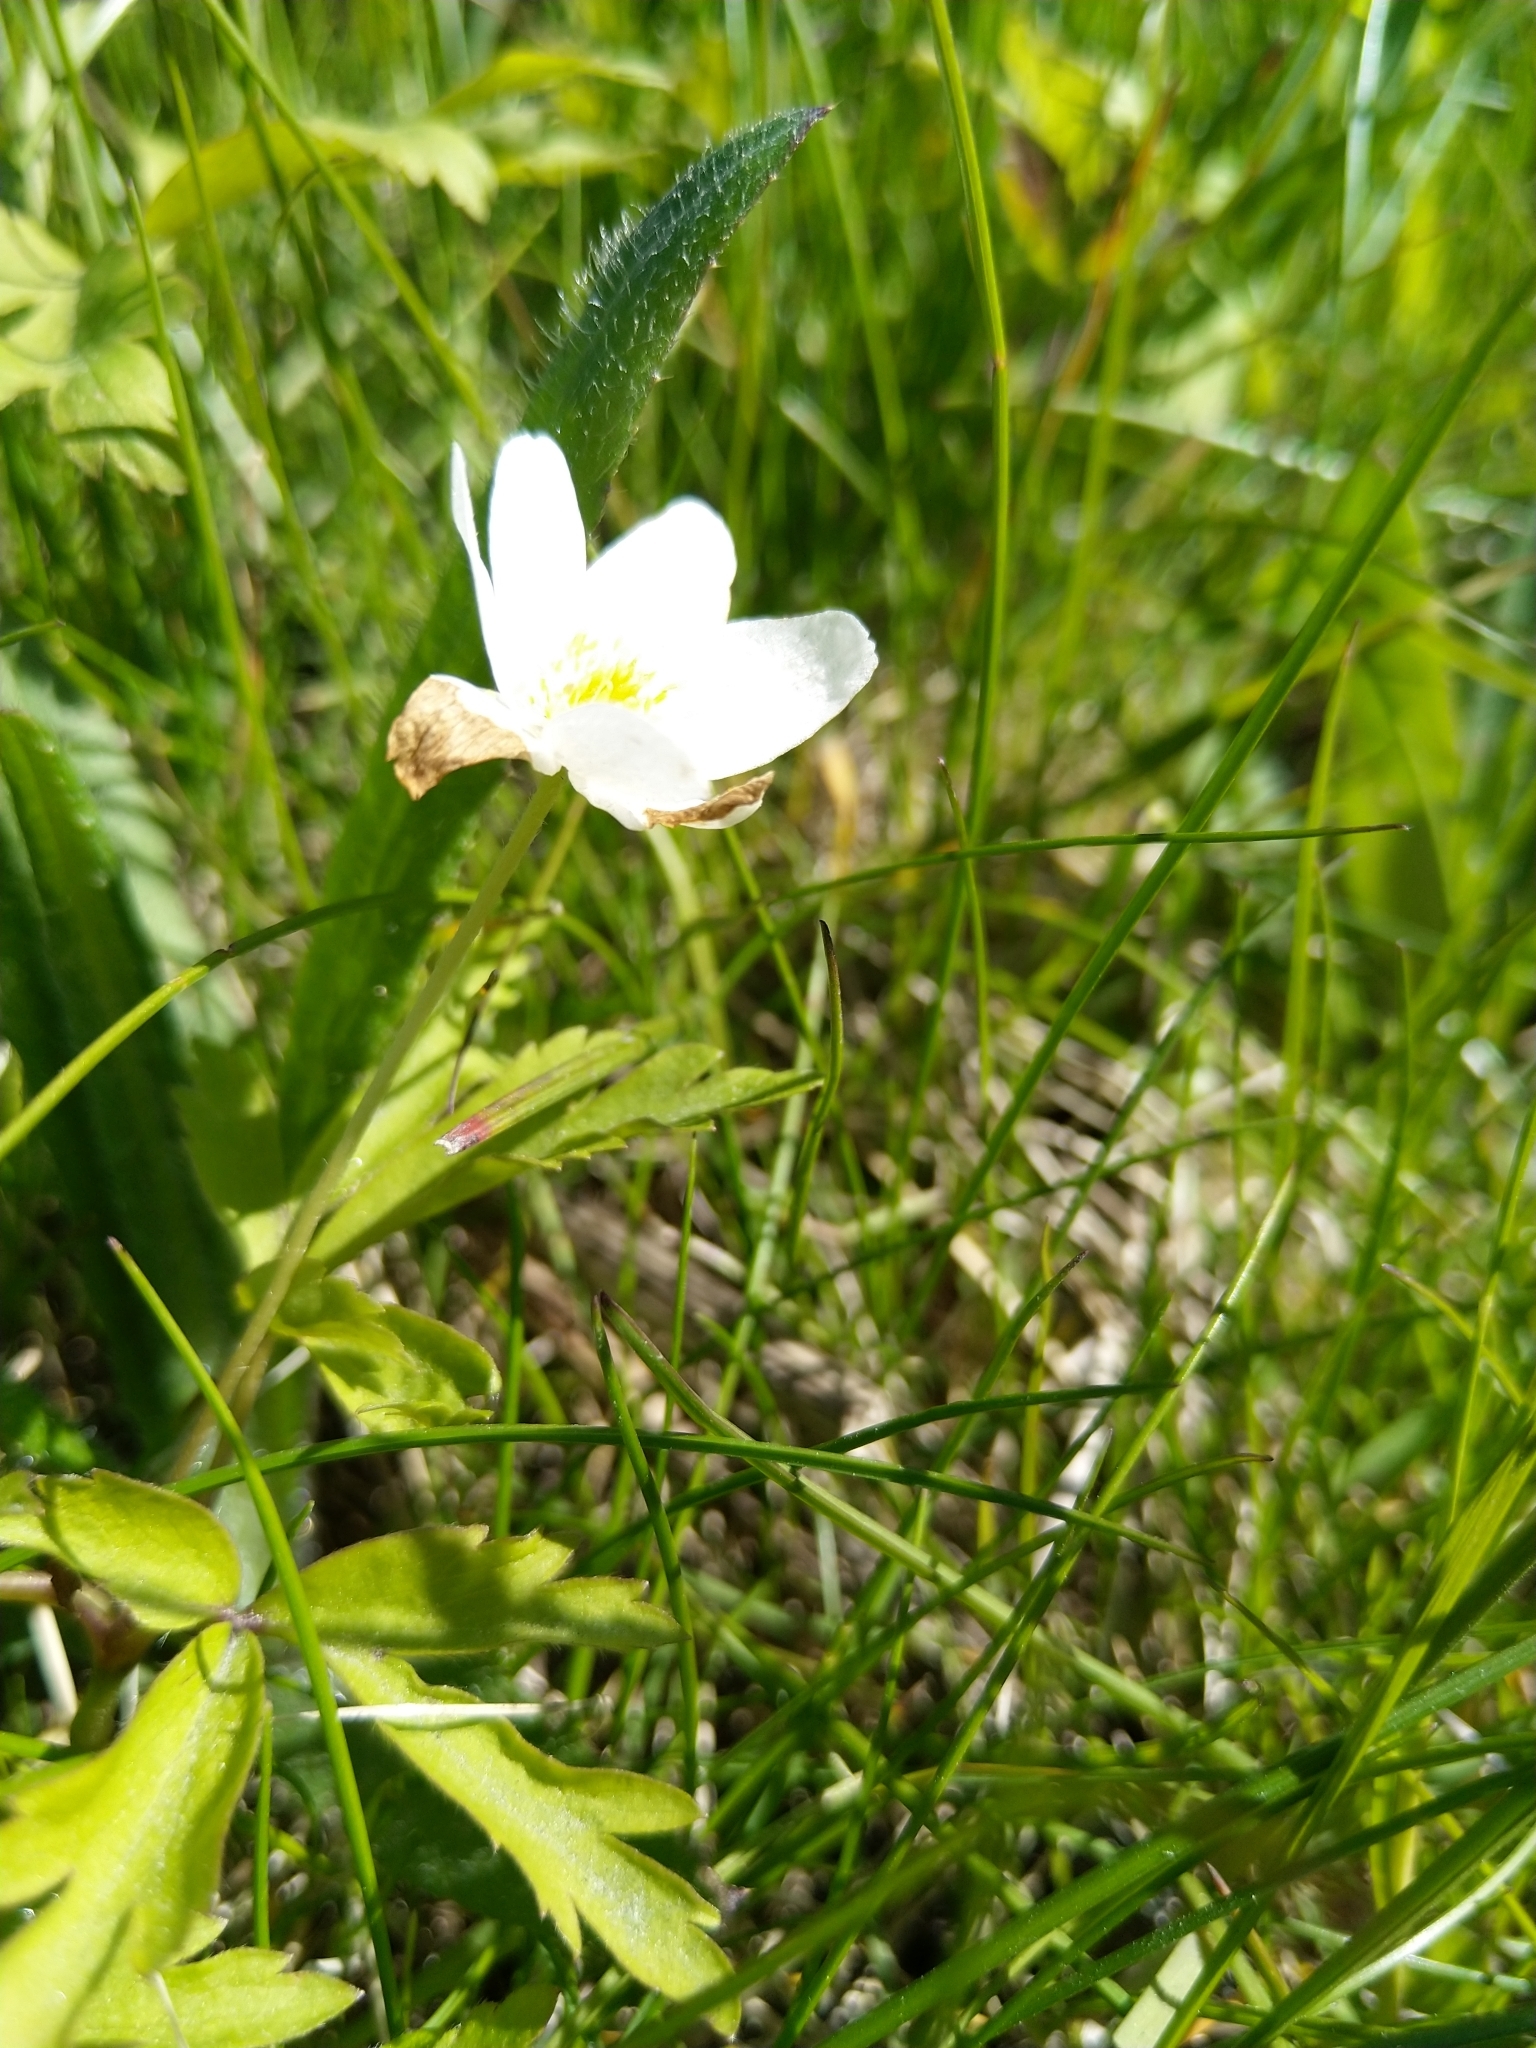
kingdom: Plantae
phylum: Tracheophyta
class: Magnoliopsida
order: Ranunculales
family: Ranunculaceae
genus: Anemone
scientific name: Anemone nemorosa
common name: Wood anemone
